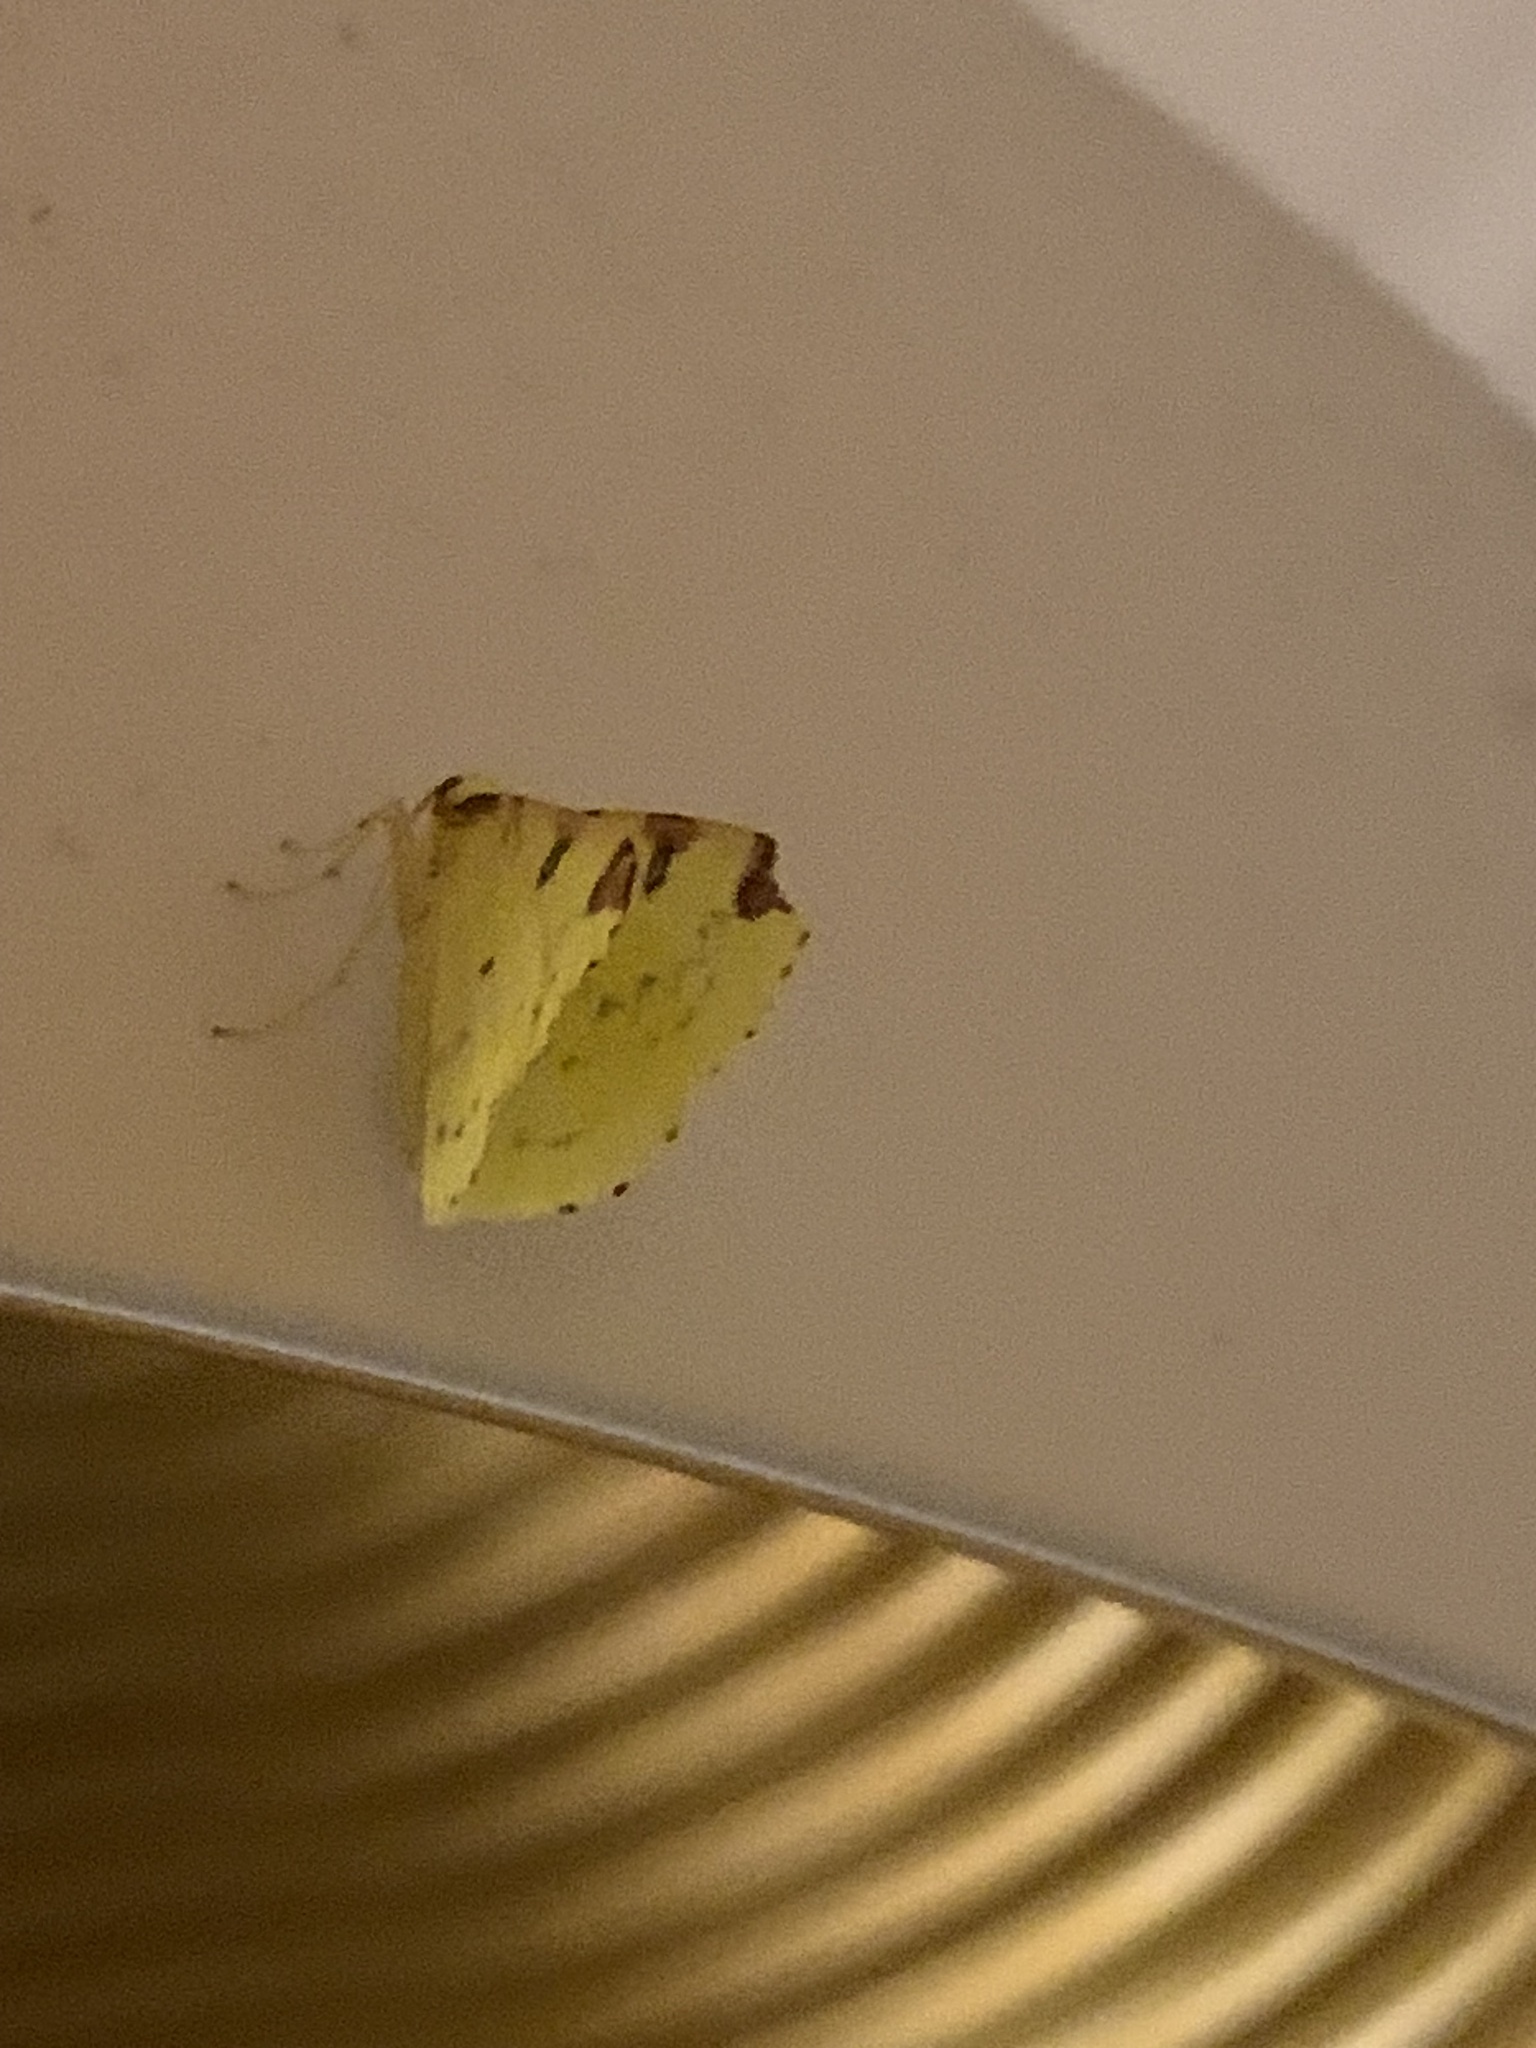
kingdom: Animalia
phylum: Arthropoda
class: Insecta
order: Lepidoptera
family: Geometridae
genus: Opisthograptis
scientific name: Opisthograptis luteolata
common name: Brimstone moth
